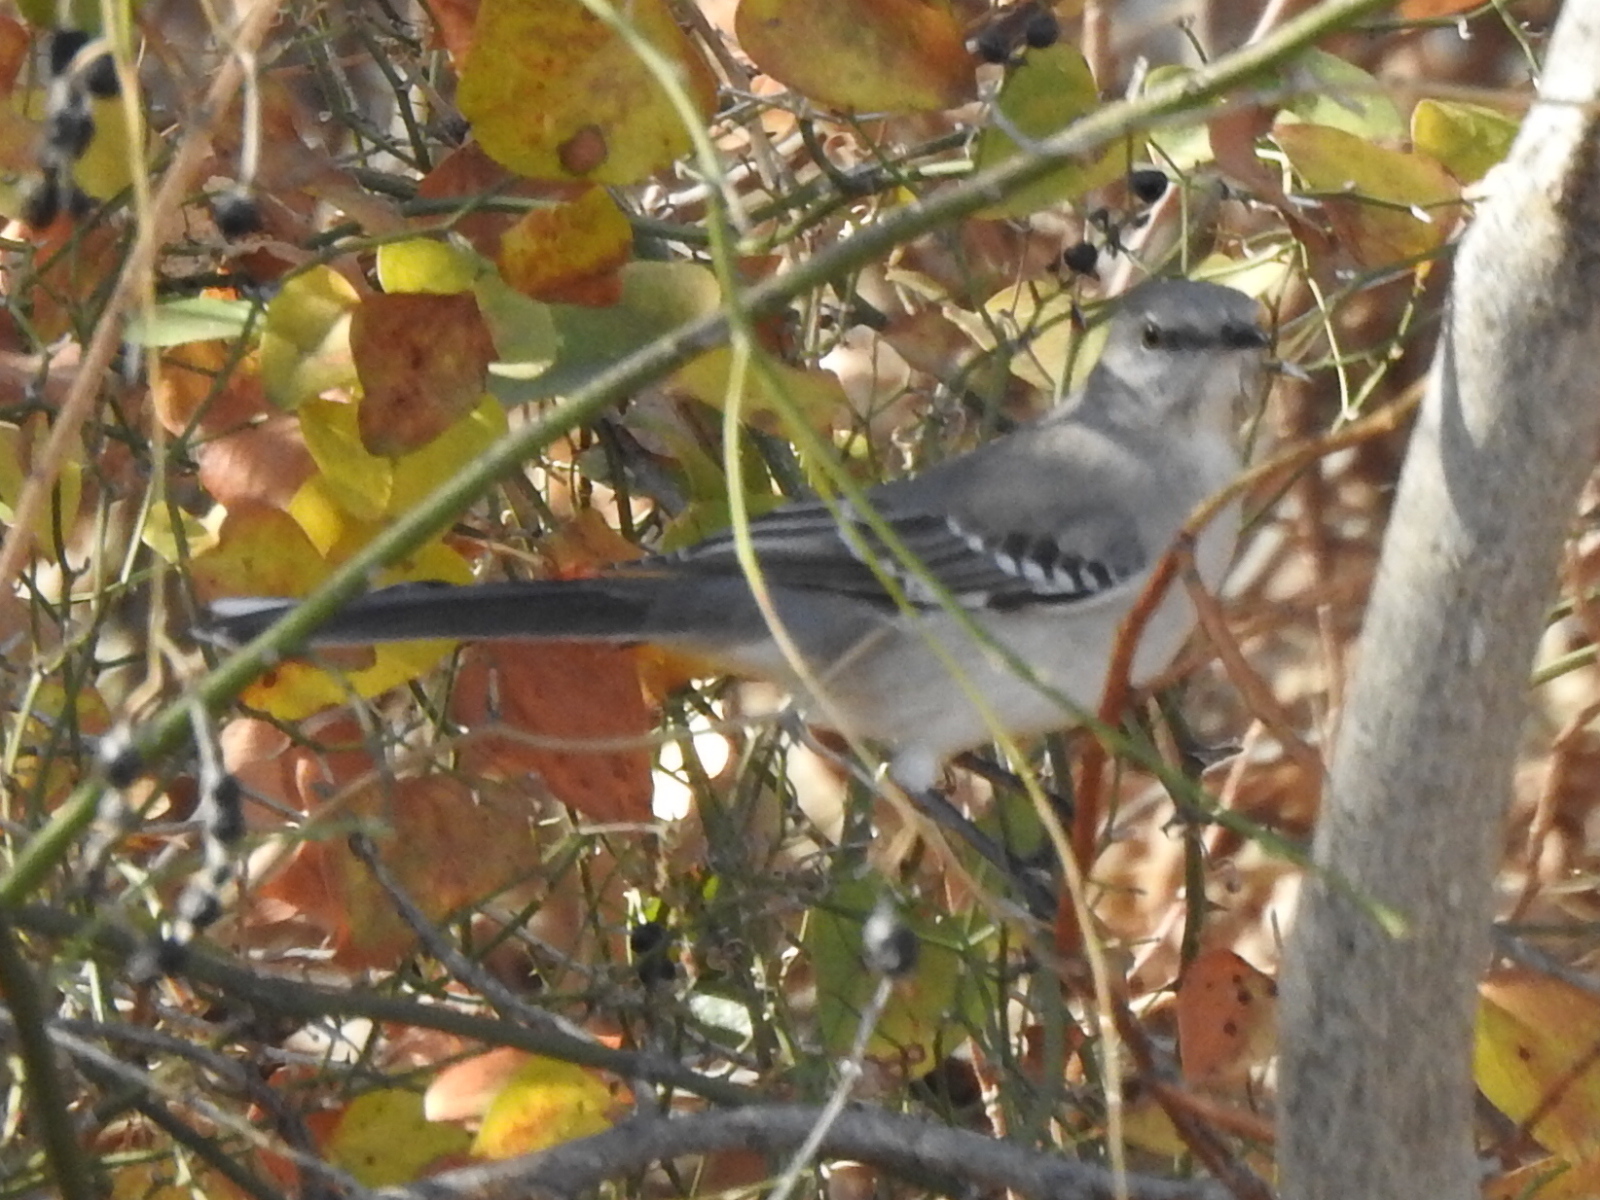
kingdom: Animalia
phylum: Chordata
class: Aves
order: Passeriformes
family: Mimidae
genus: Mimus
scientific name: Mimus polyglottos
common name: Northern mockingbird
